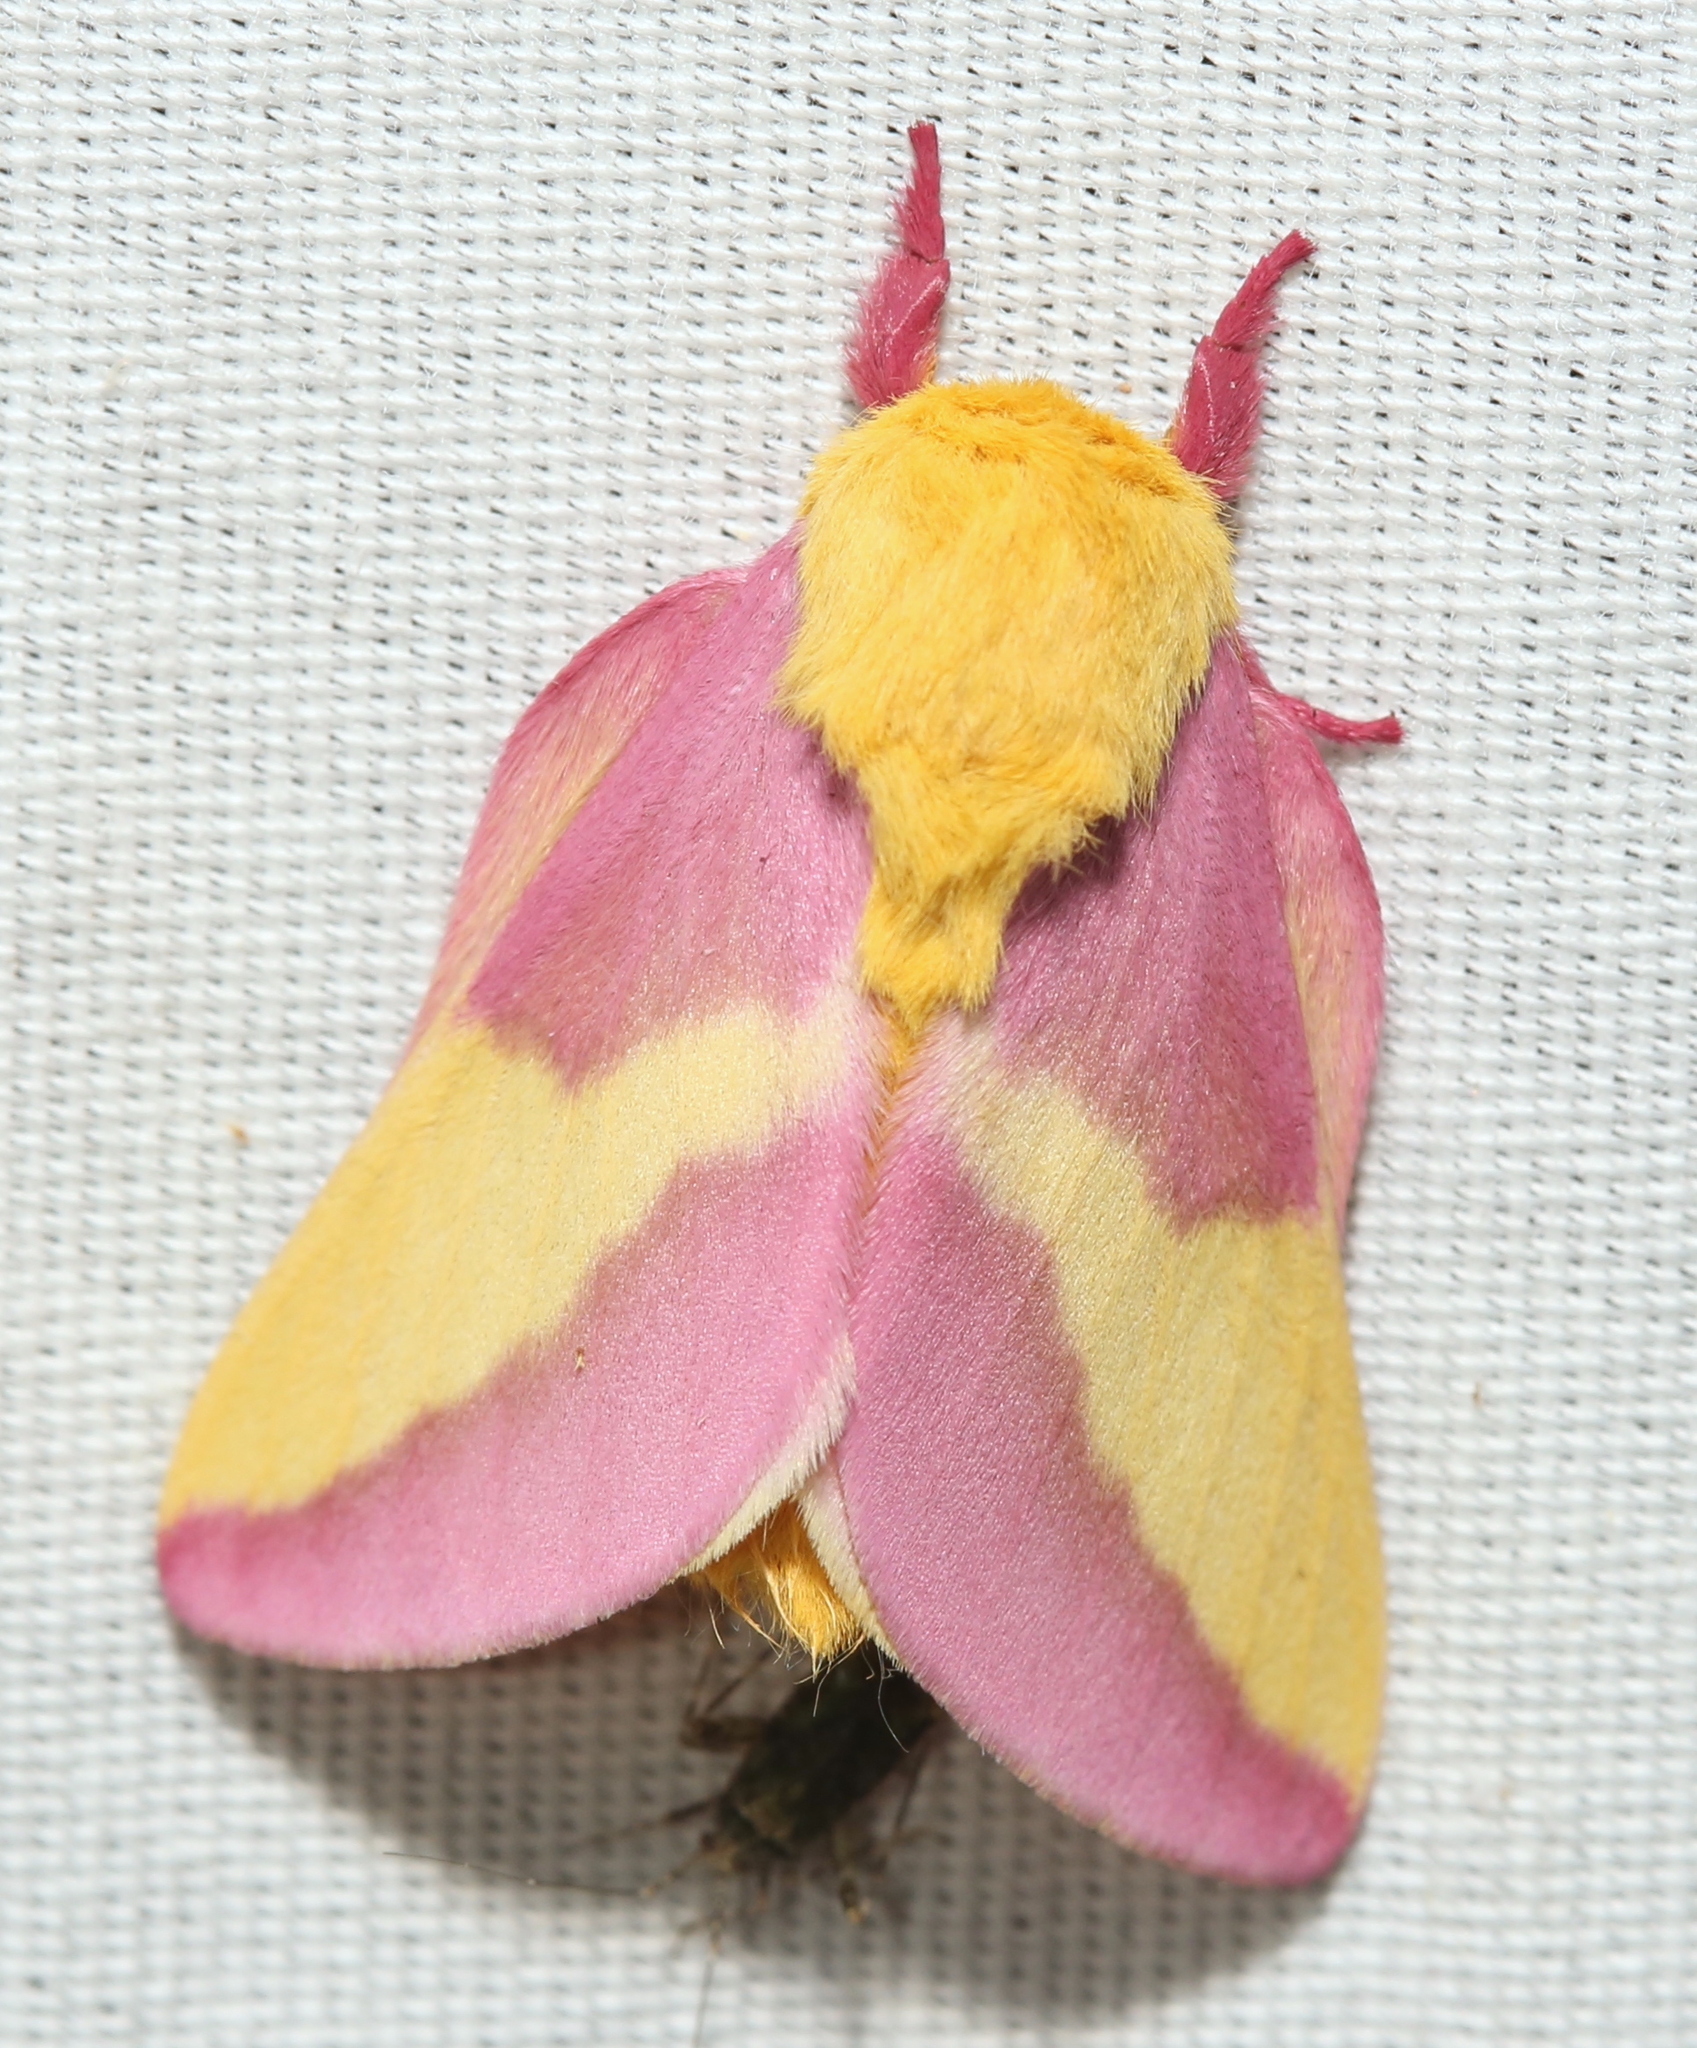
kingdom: Animalia
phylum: Arthropoda
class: Insecta
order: Lepidoptera
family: Saturniidae
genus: Dryocampa
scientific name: Dryocampa rubicunda
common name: Rosy maple moth
